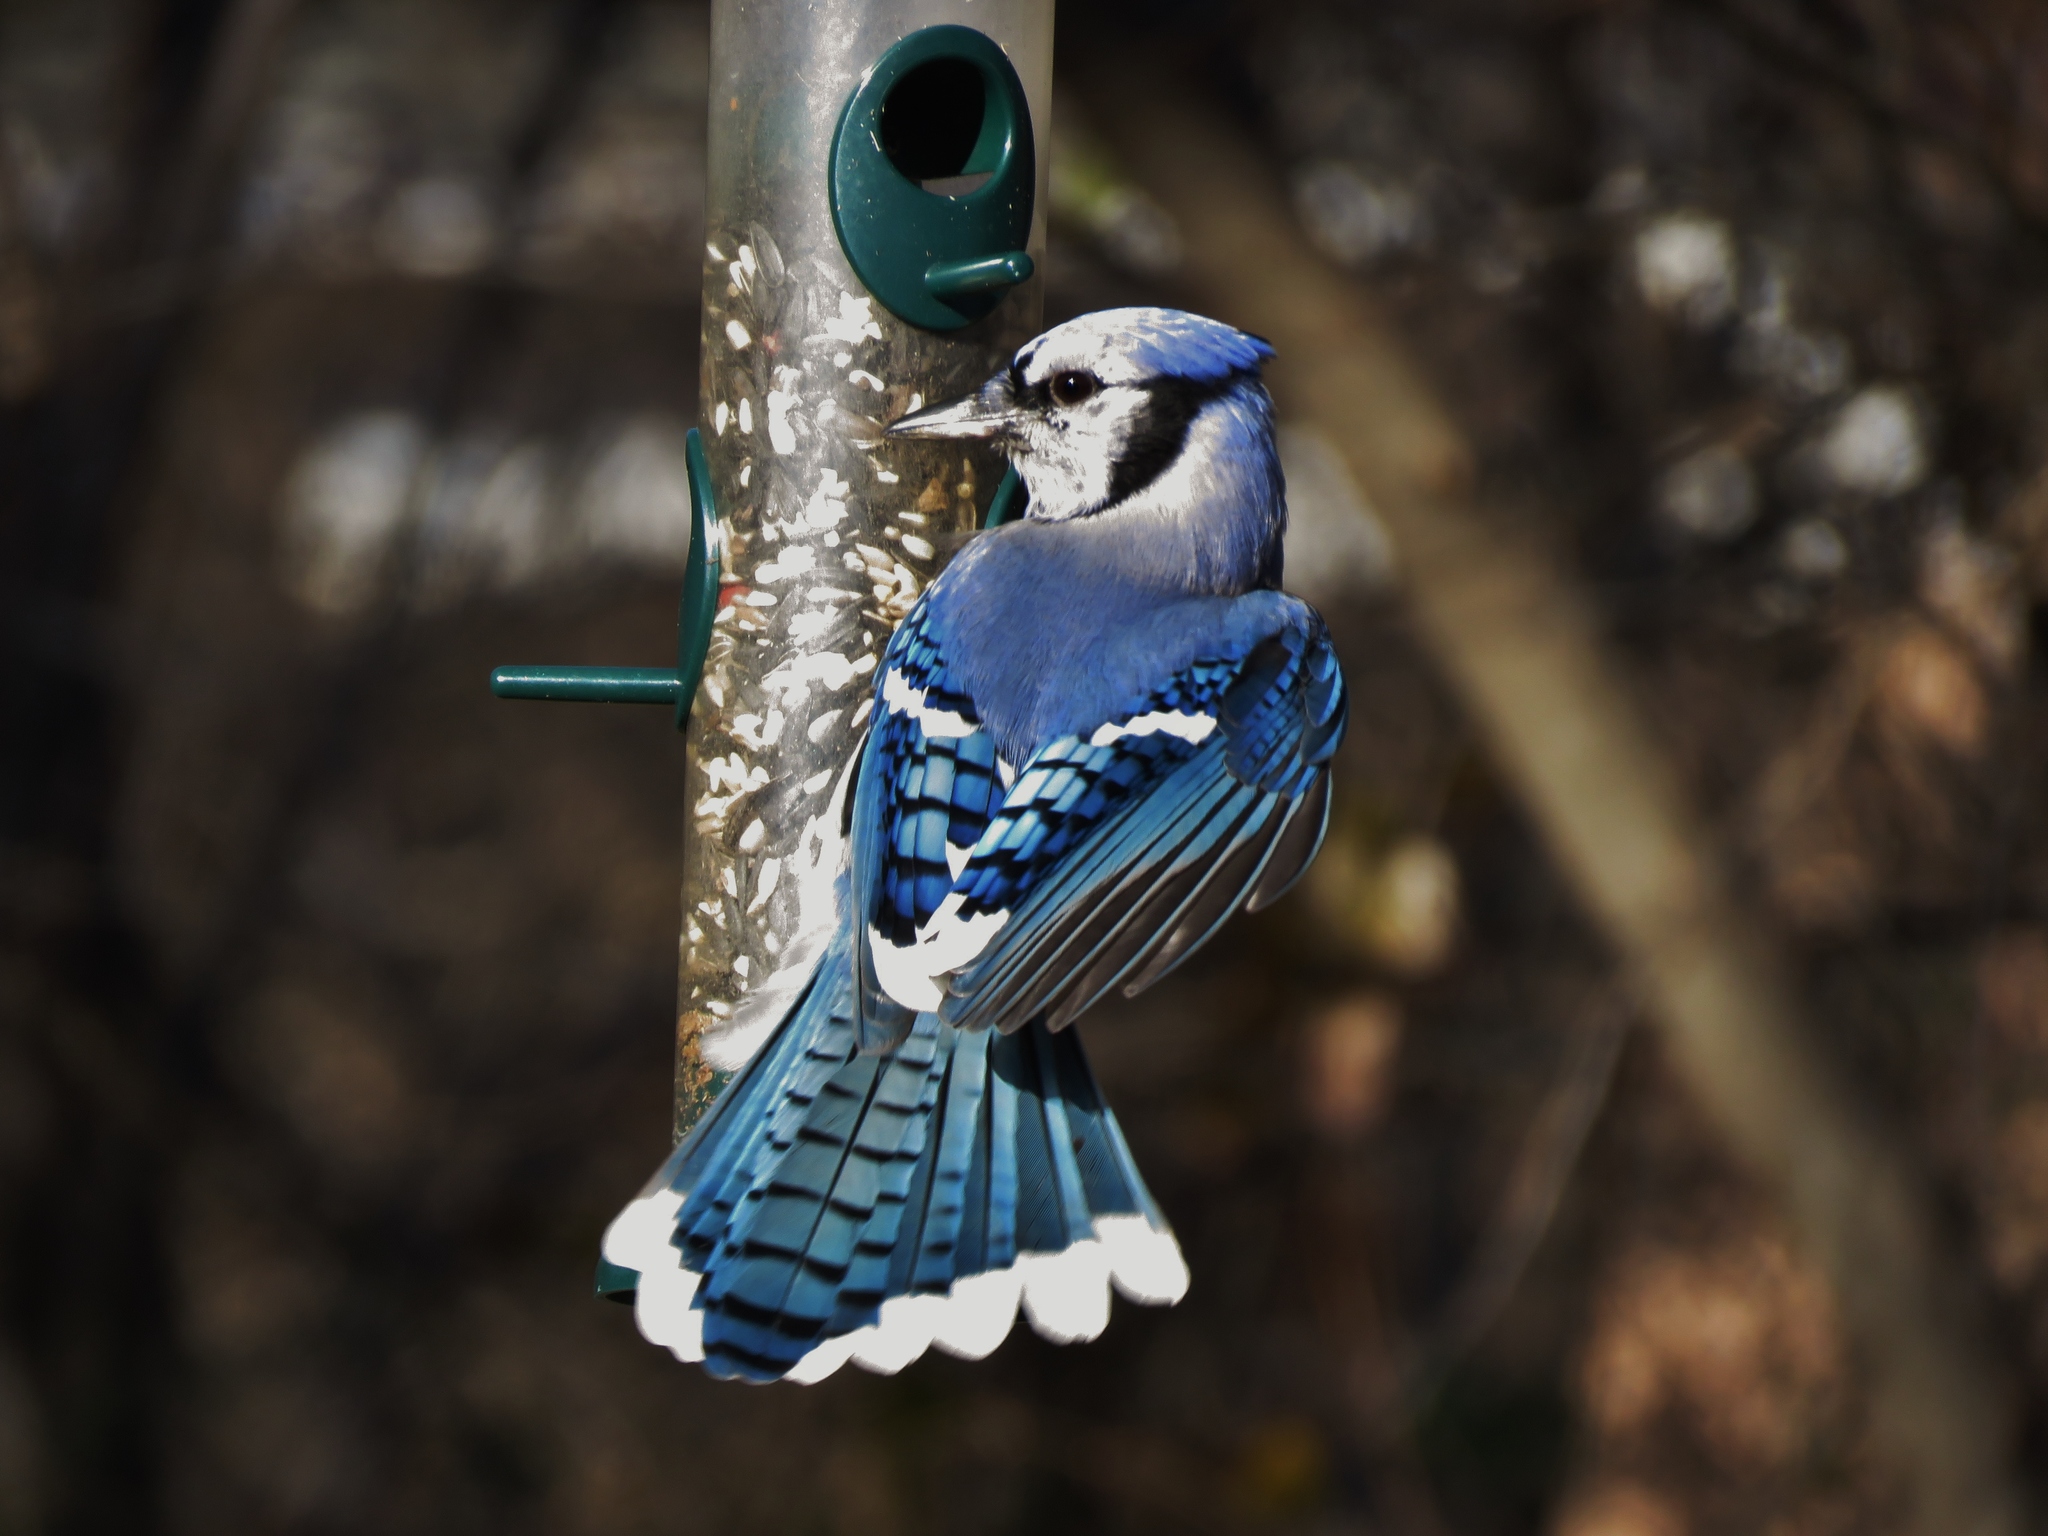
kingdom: Animalia
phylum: Chordata
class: Aves
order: Passeriformes
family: Corvidae
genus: Cyanocitta
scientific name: Cyanocitta cristata
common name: Blue jay
